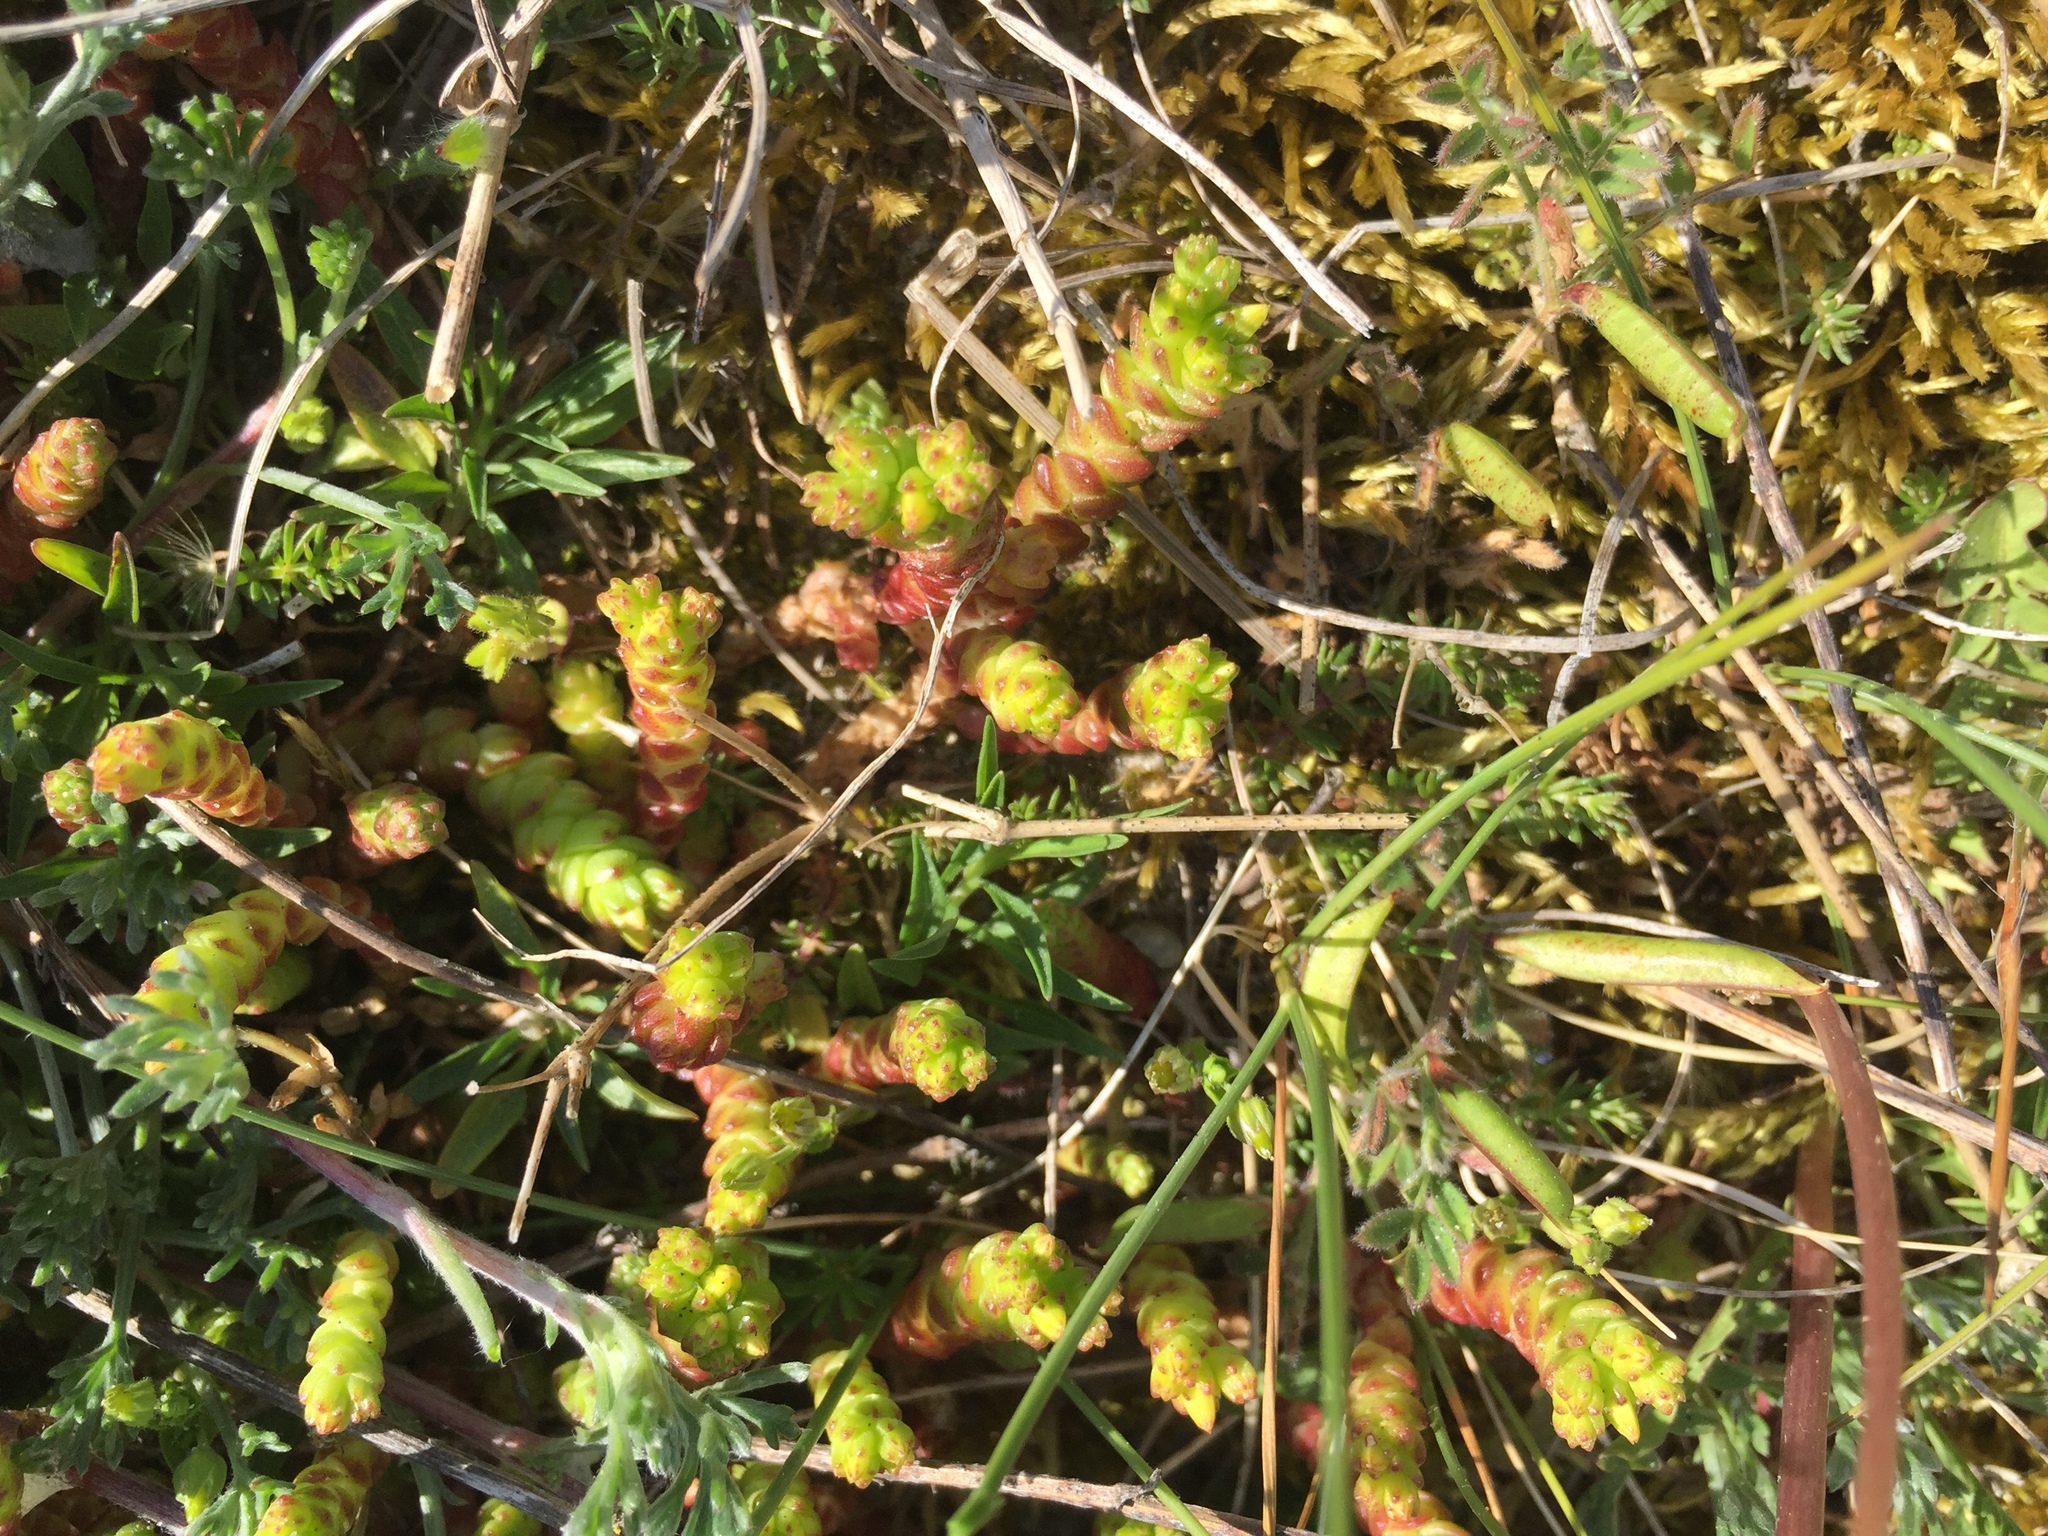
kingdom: Plantae
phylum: Tracheophyta
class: Magnoliopsida
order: Saxifragales
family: Crassulaceae
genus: Sedum
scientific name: Sedum acre
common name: Biting stonecrop
